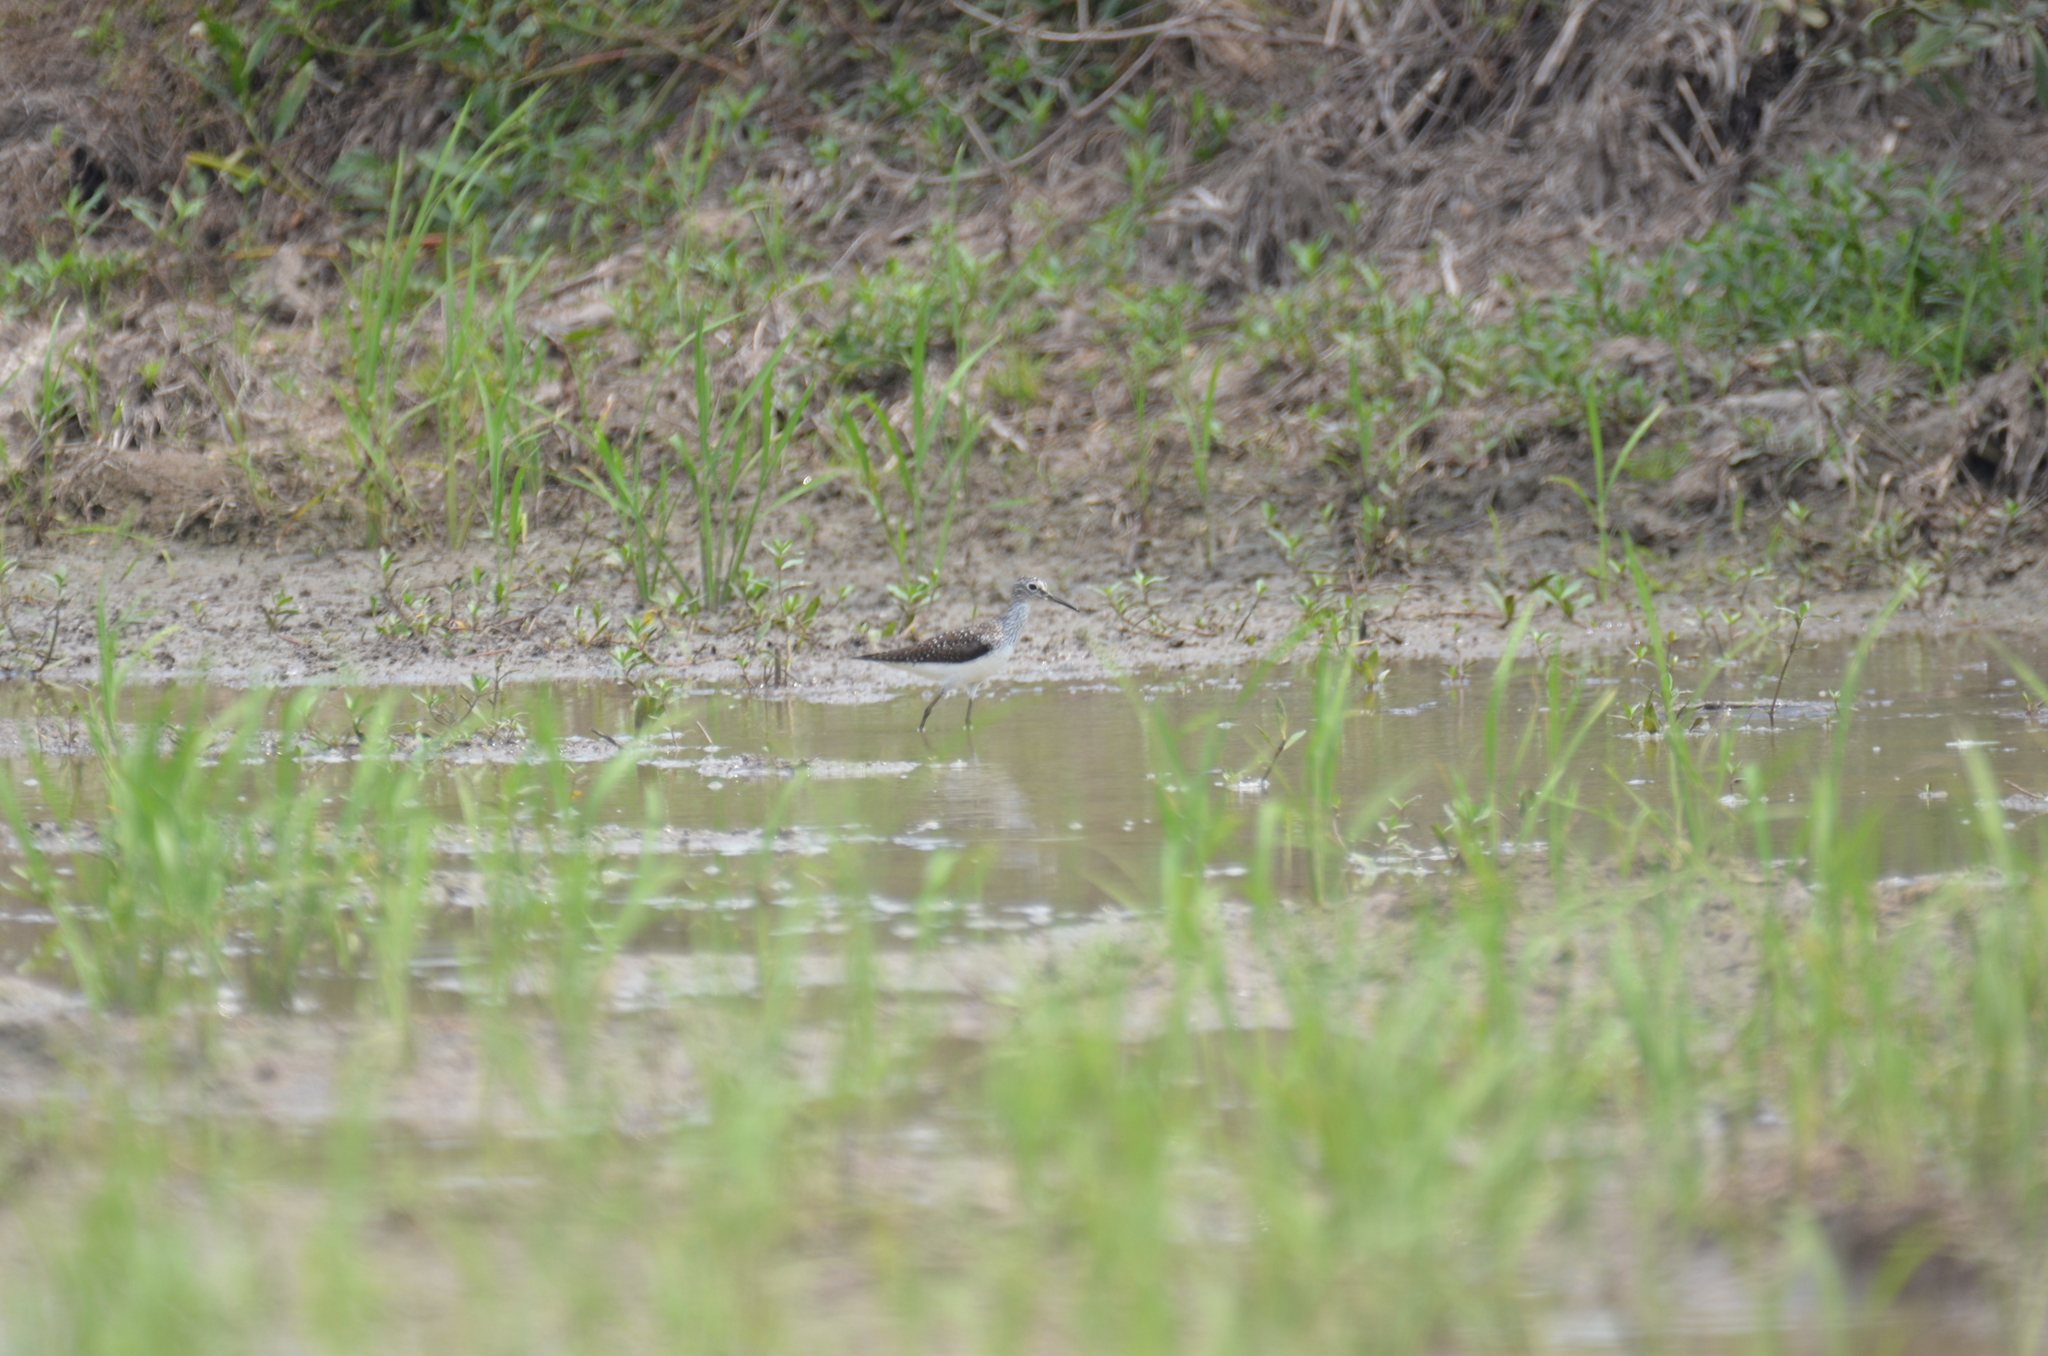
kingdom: Animalia
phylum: Chordata
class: Aves
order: Charadriiformes
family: Scolopacidae
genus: Tringa
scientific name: Tringa solitaria
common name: Solitary sandpiper
